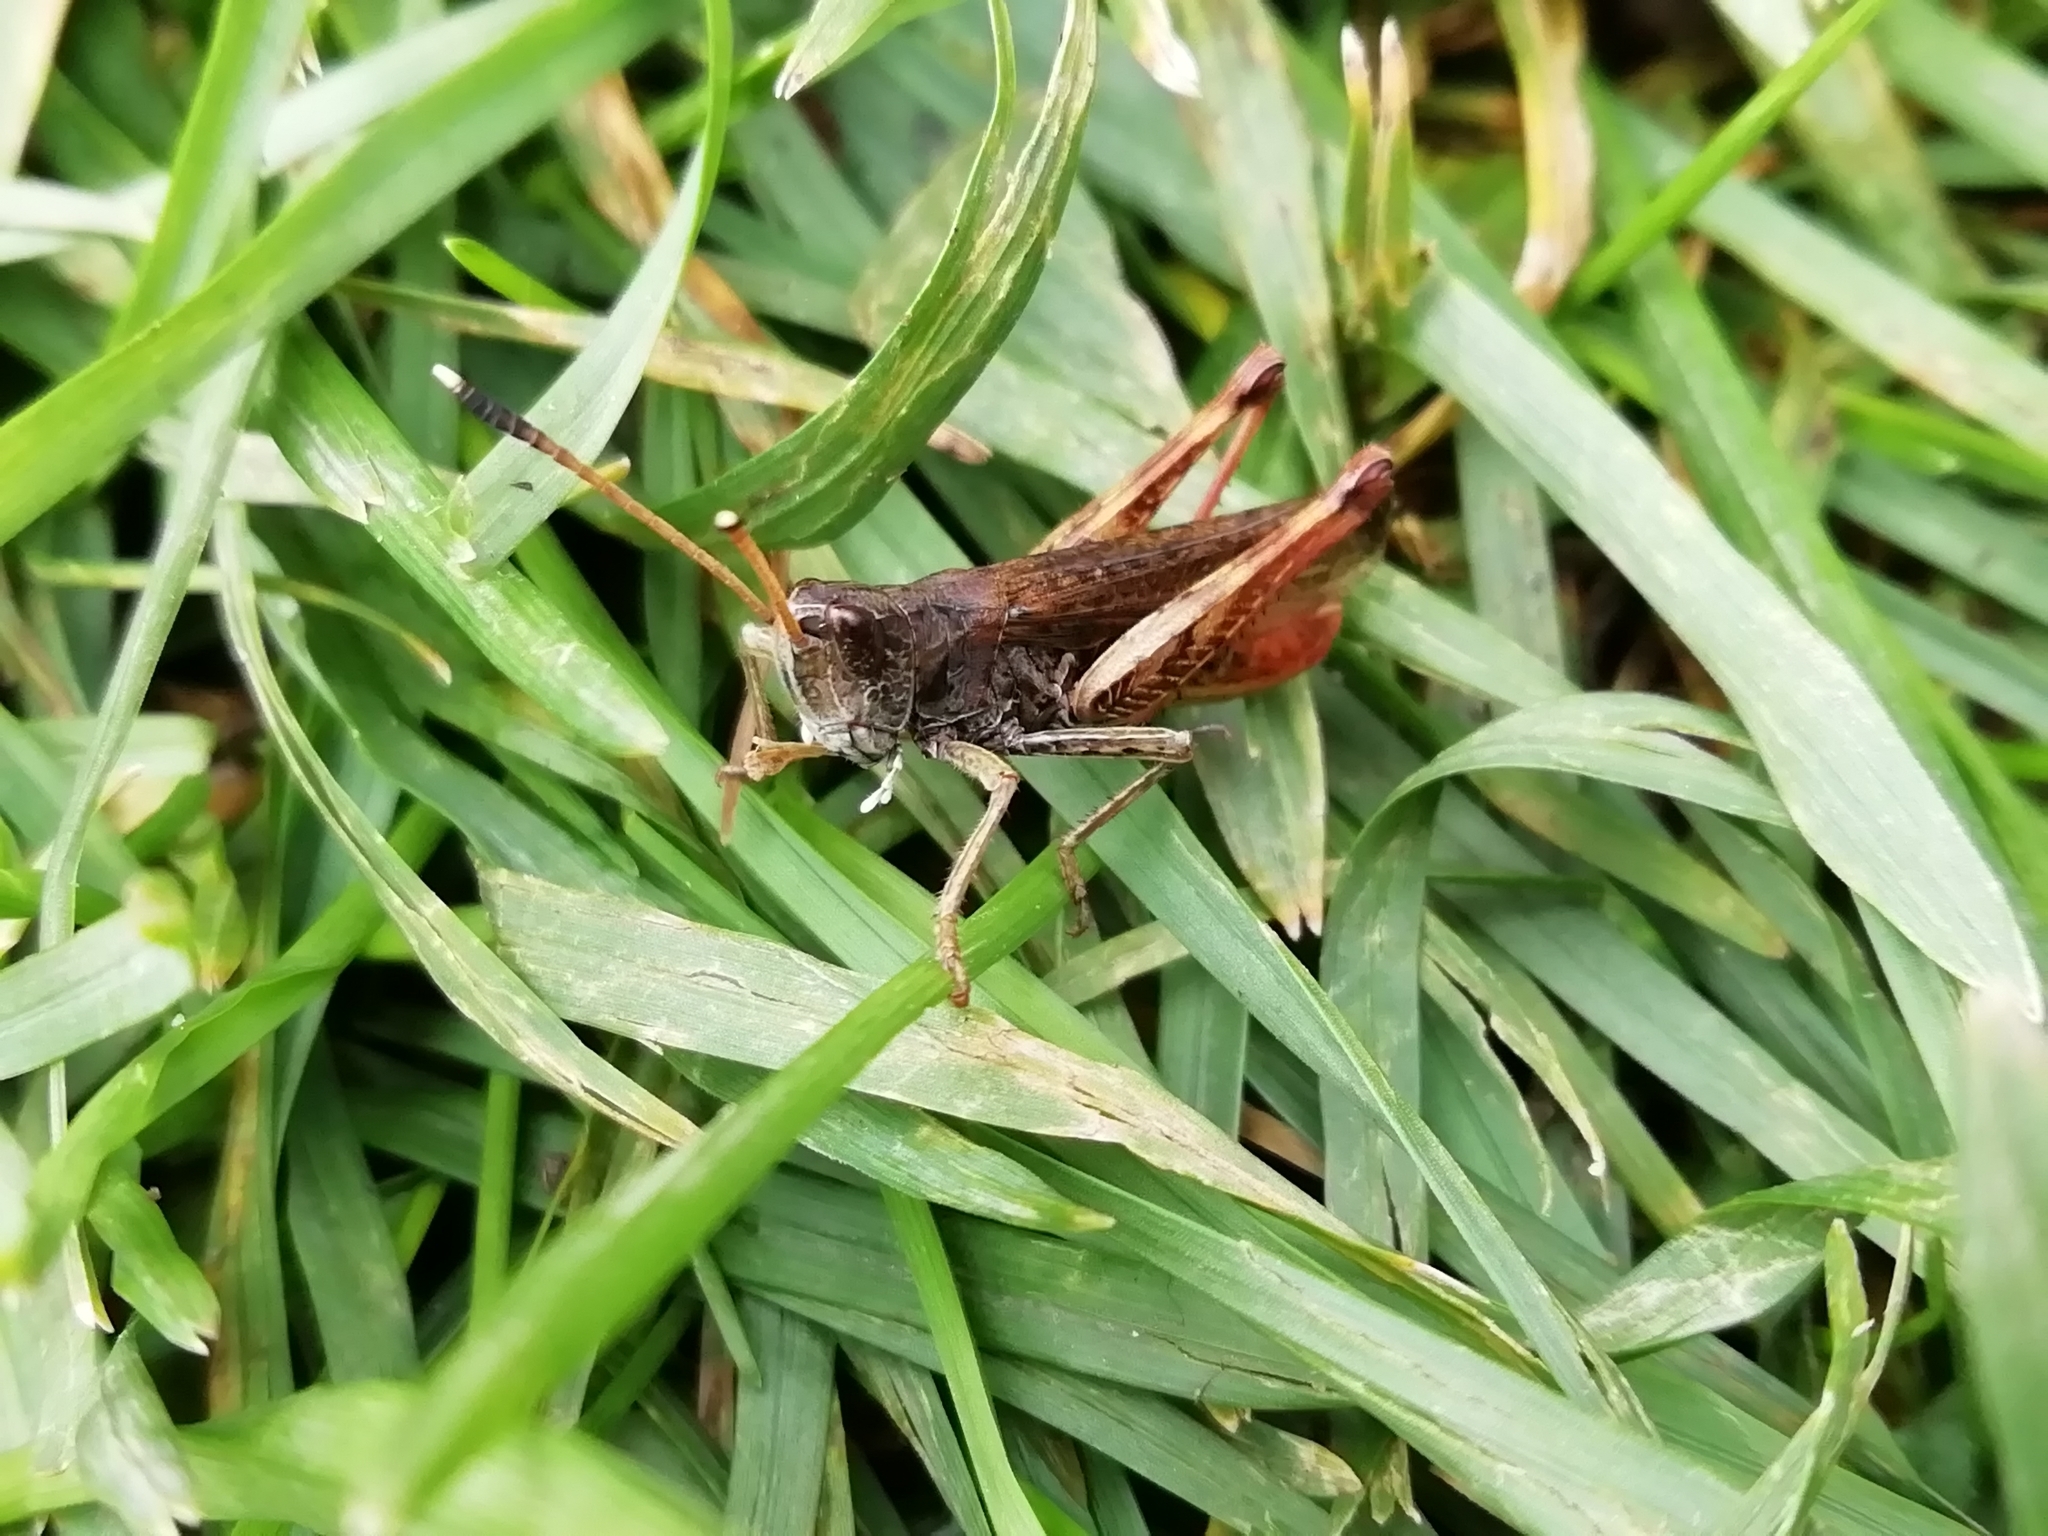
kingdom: Animalia
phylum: Arthropoda
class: Insecta
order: Orthoptera
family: Acrididae
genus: Gomphocerippus
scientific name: Gomphocerippus rufus
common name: Rufous grasshopper
